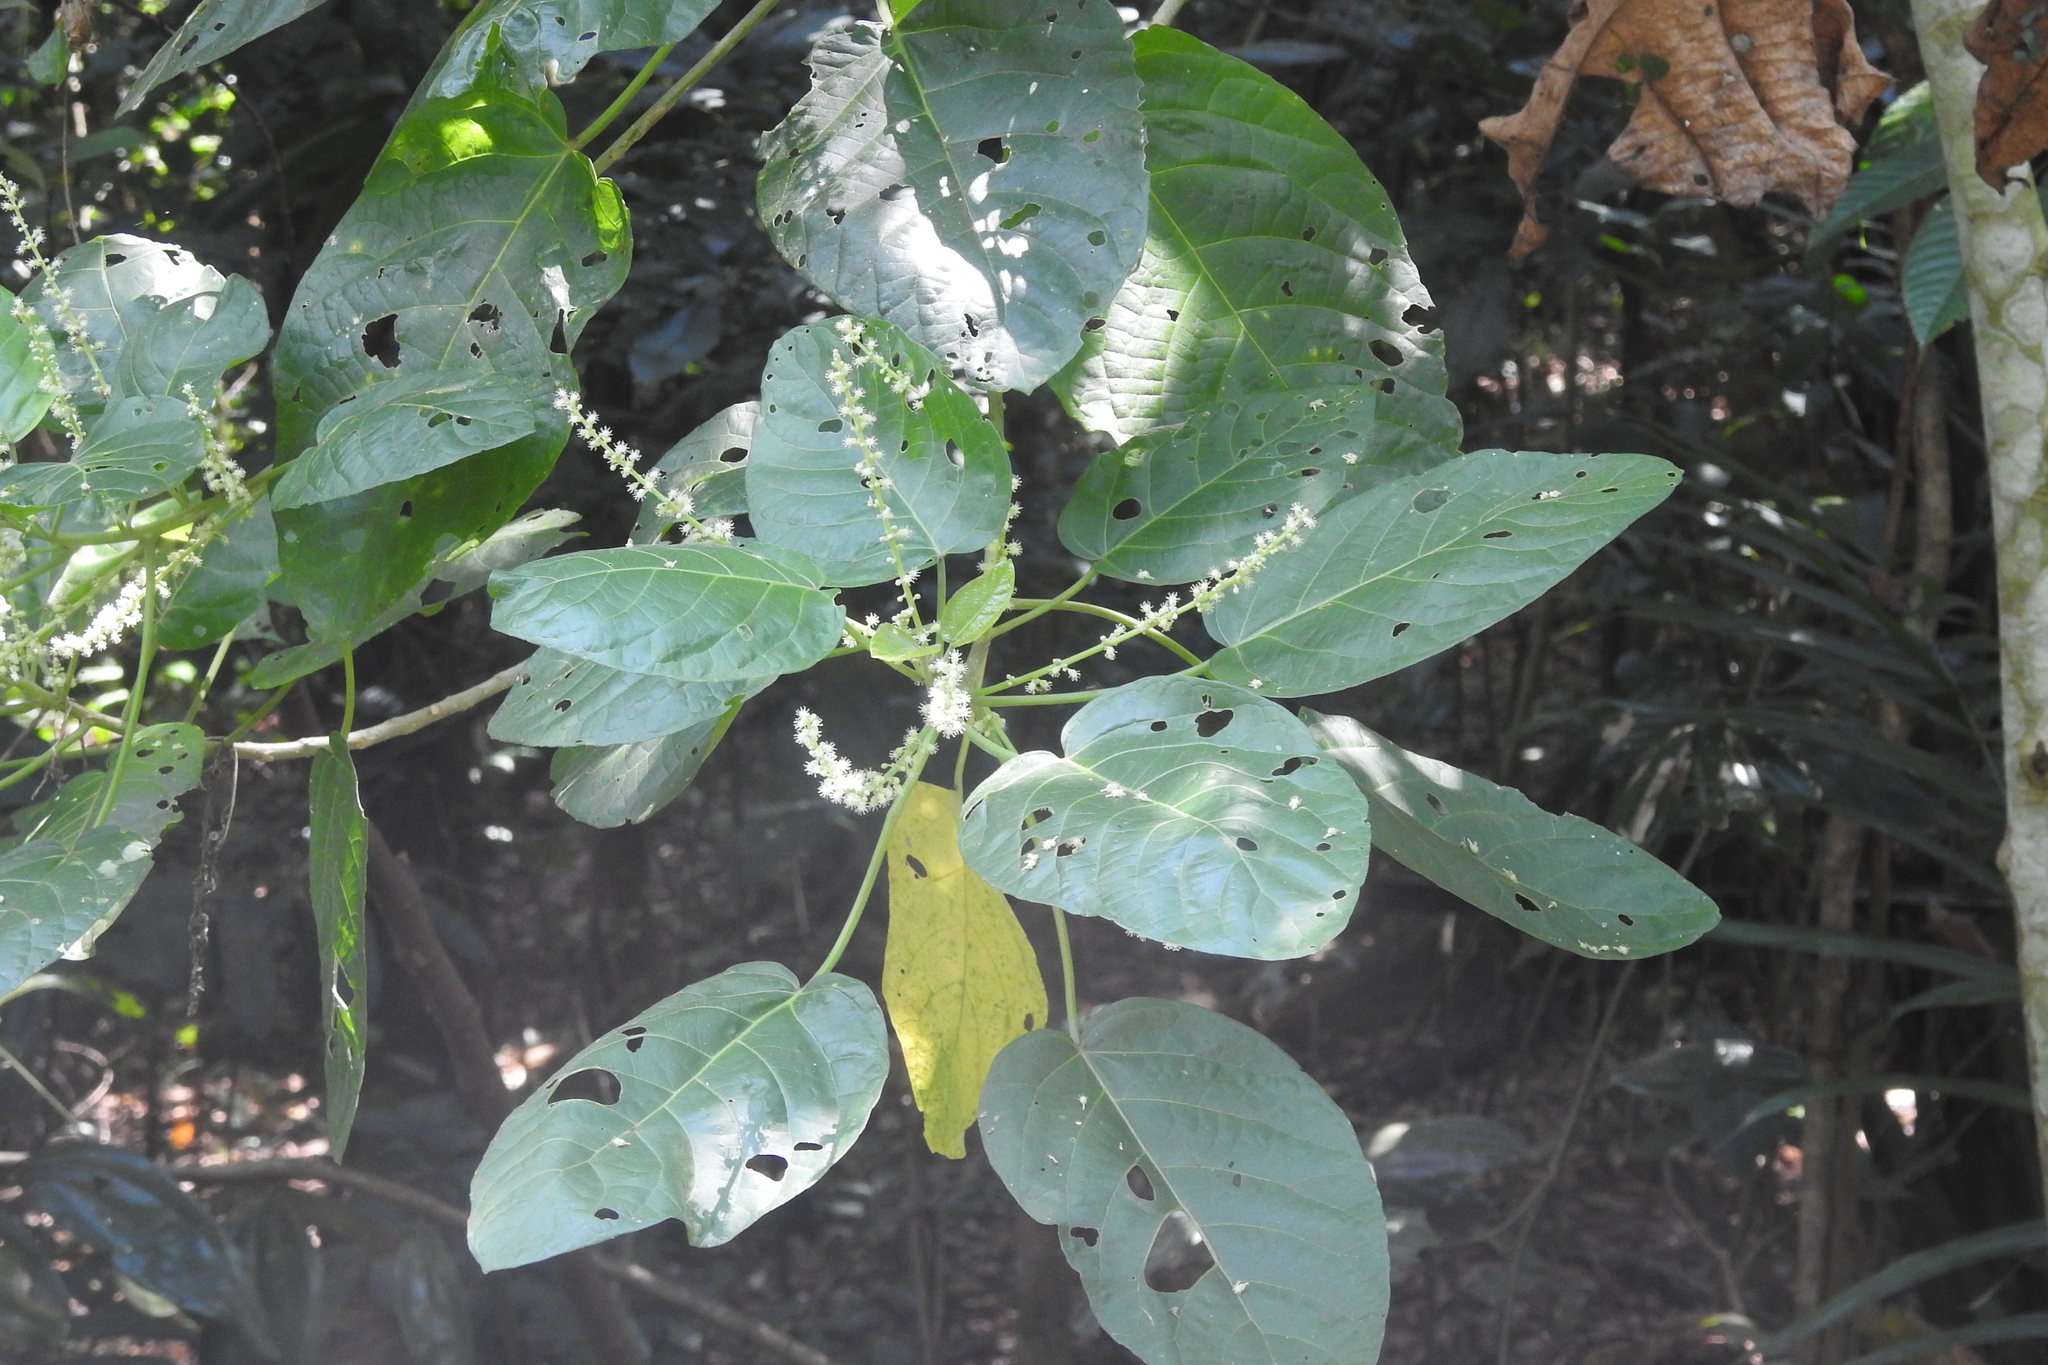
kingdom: Plantae
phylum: Tracheophyta
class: Magnoliopsida
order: Malpighiales
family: Euphorbiaceae
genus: Claoxylon
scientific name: Claoxylon indicum
